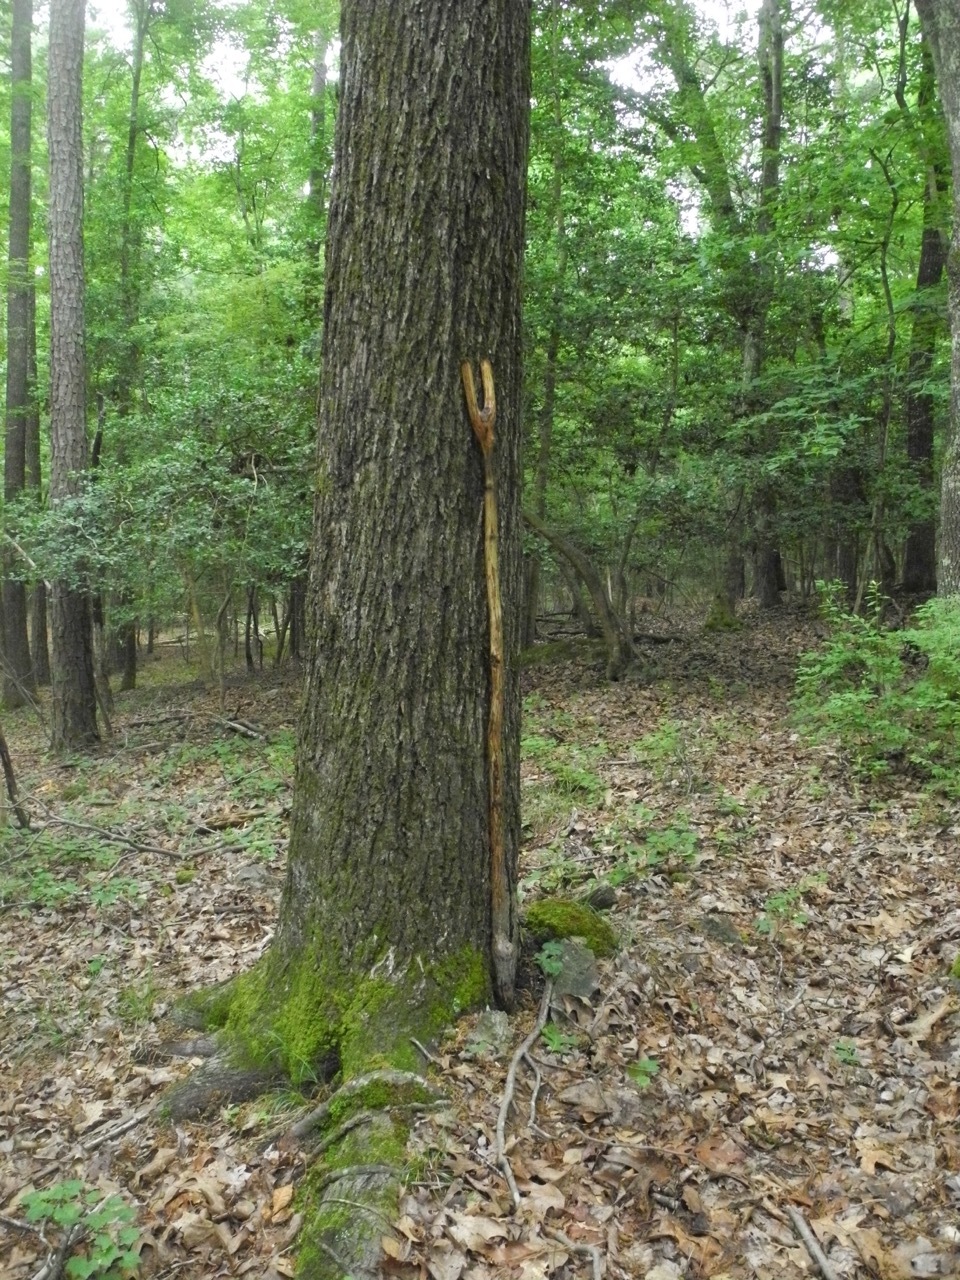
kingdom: Plantae
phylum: Tracheophyta
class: Magnoliopsida
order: Fagales
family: Juglandaceae
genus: Carya
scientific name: Carya alba
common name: Mockernut hickory
